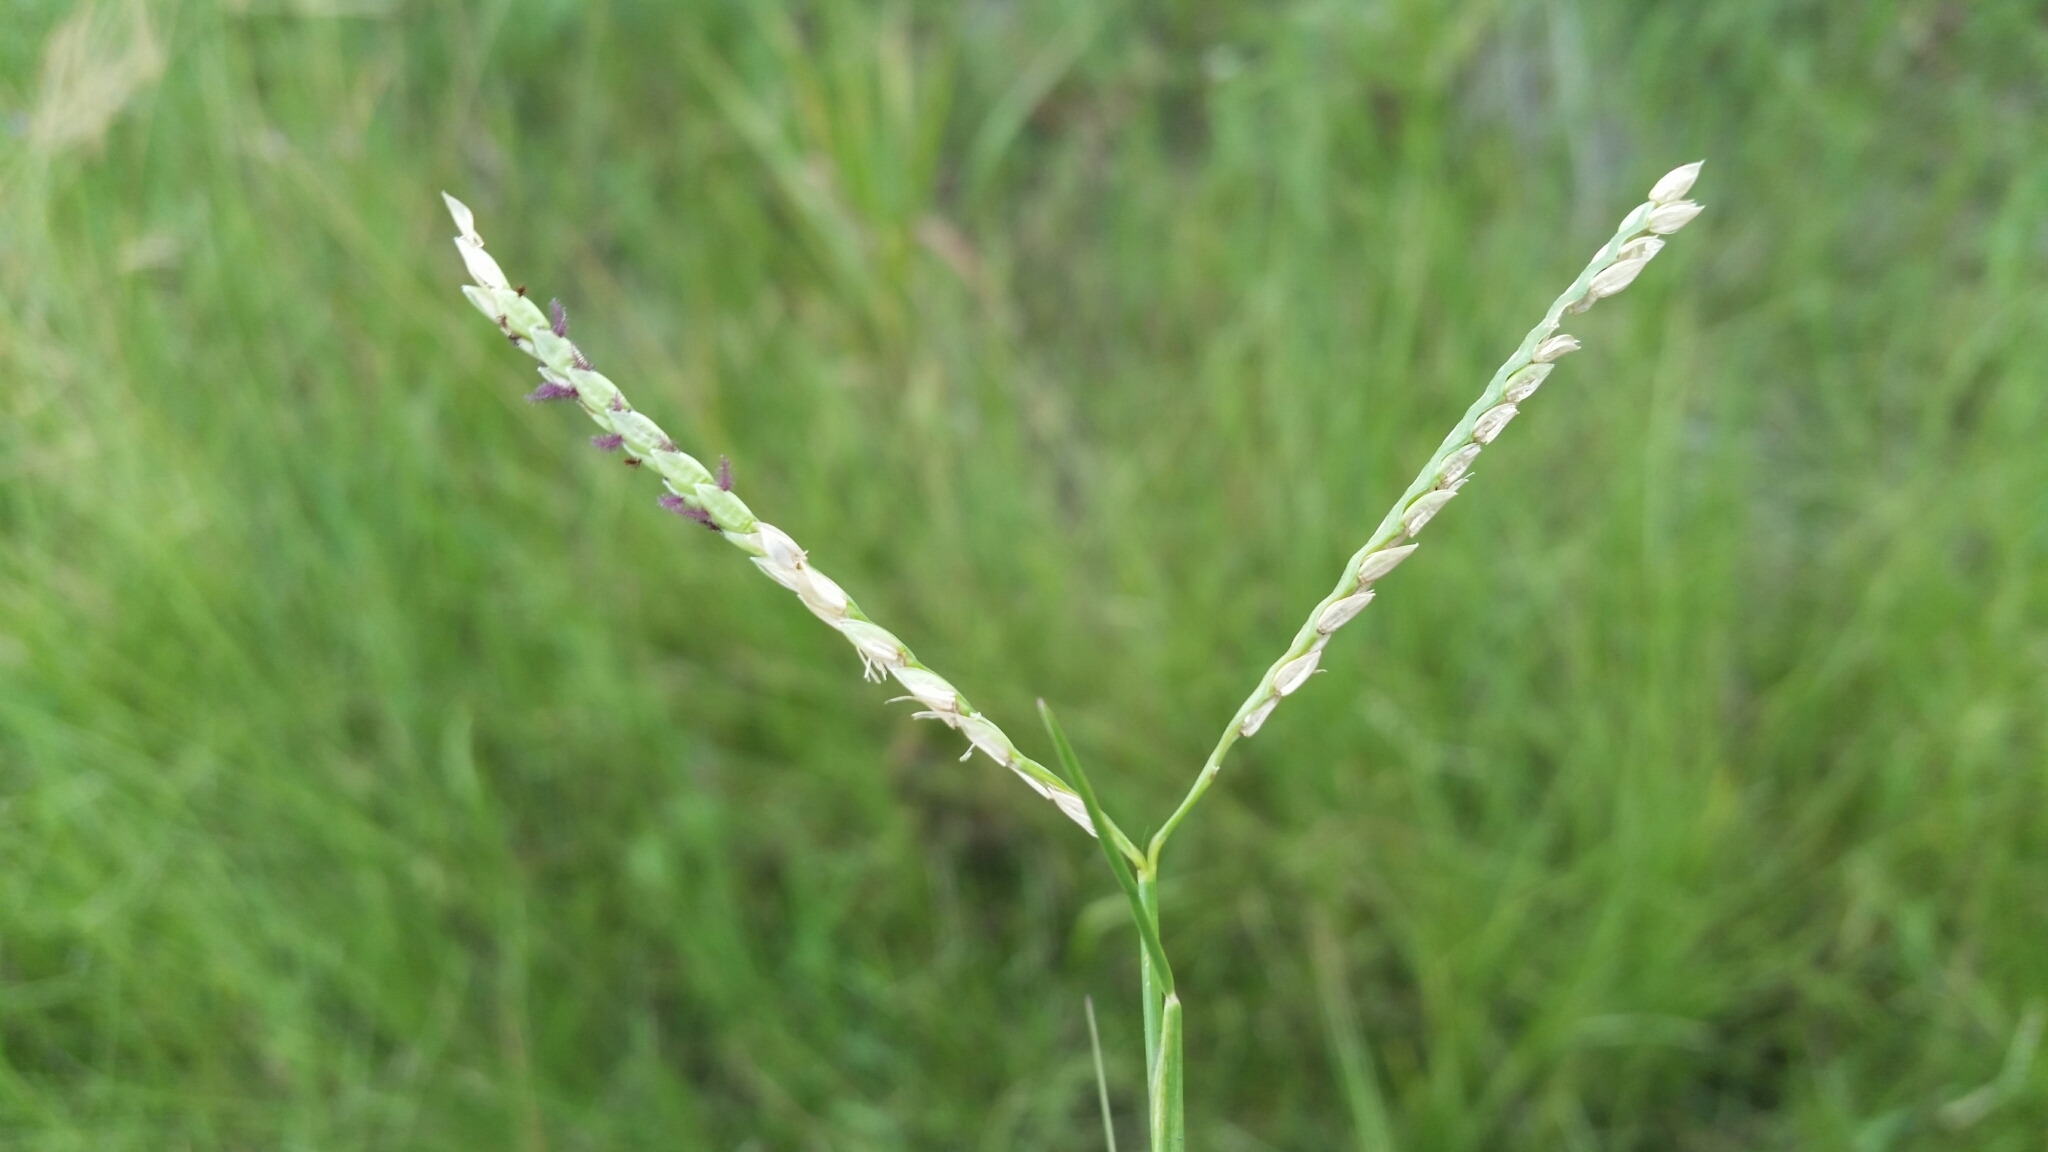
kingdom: Plantae
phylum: Tracheophyta
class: Liliopsida
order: Poales
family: Poaceae
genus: Paspalum
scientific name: Paspalum distichum
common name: Knotgrass
